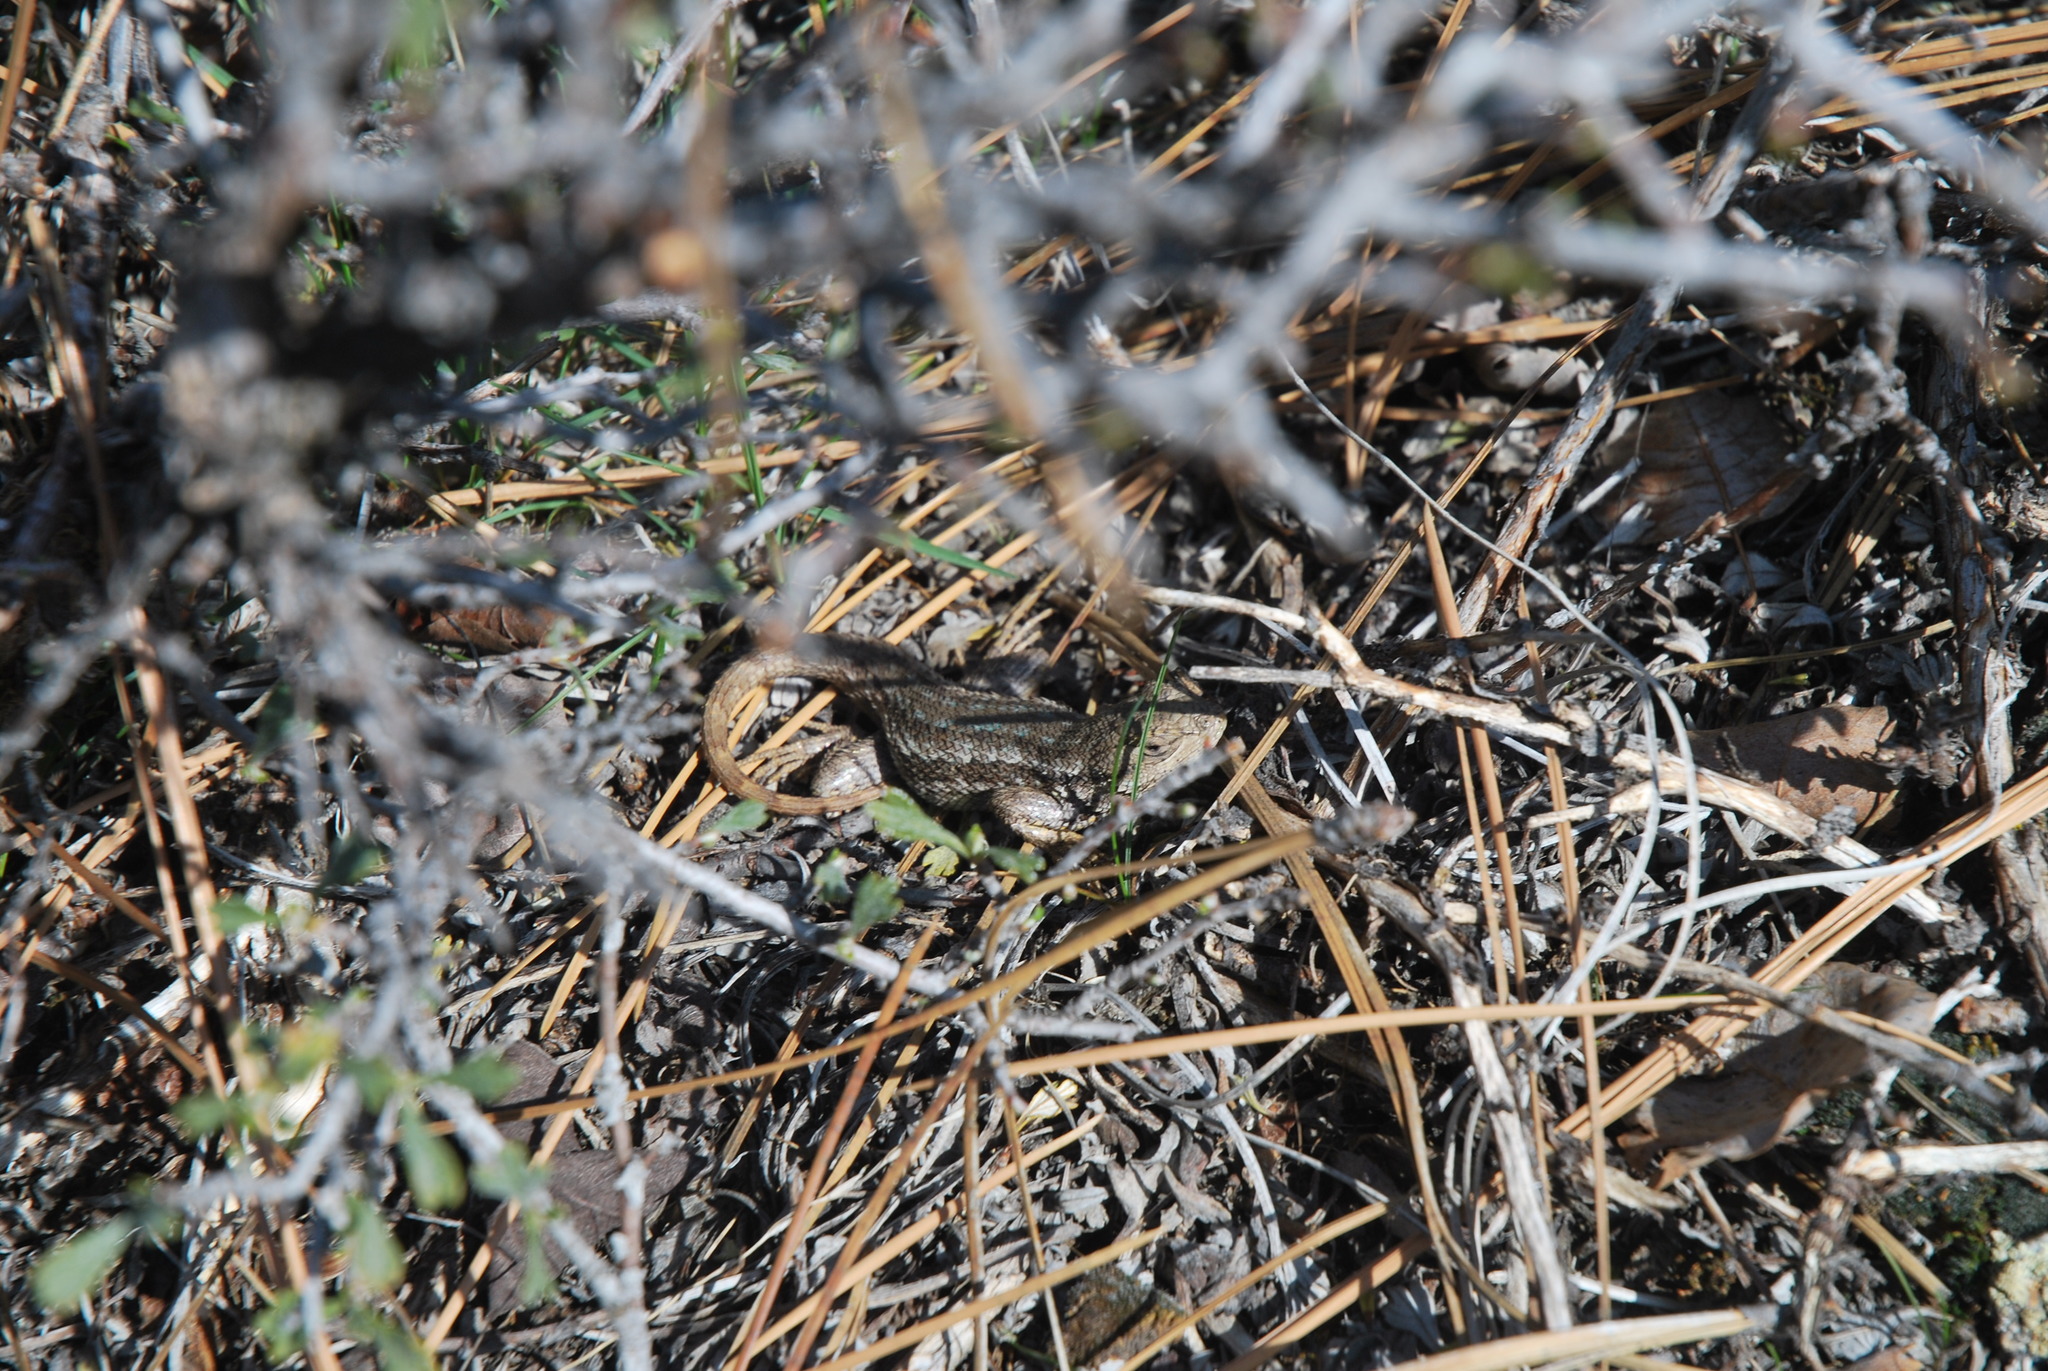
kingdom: Animalia
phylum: Chordata
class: Squamata
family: Phrynosomatidae
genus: Sceloporus
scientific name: Sceloporus occidentalis
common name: Western fence lizard
